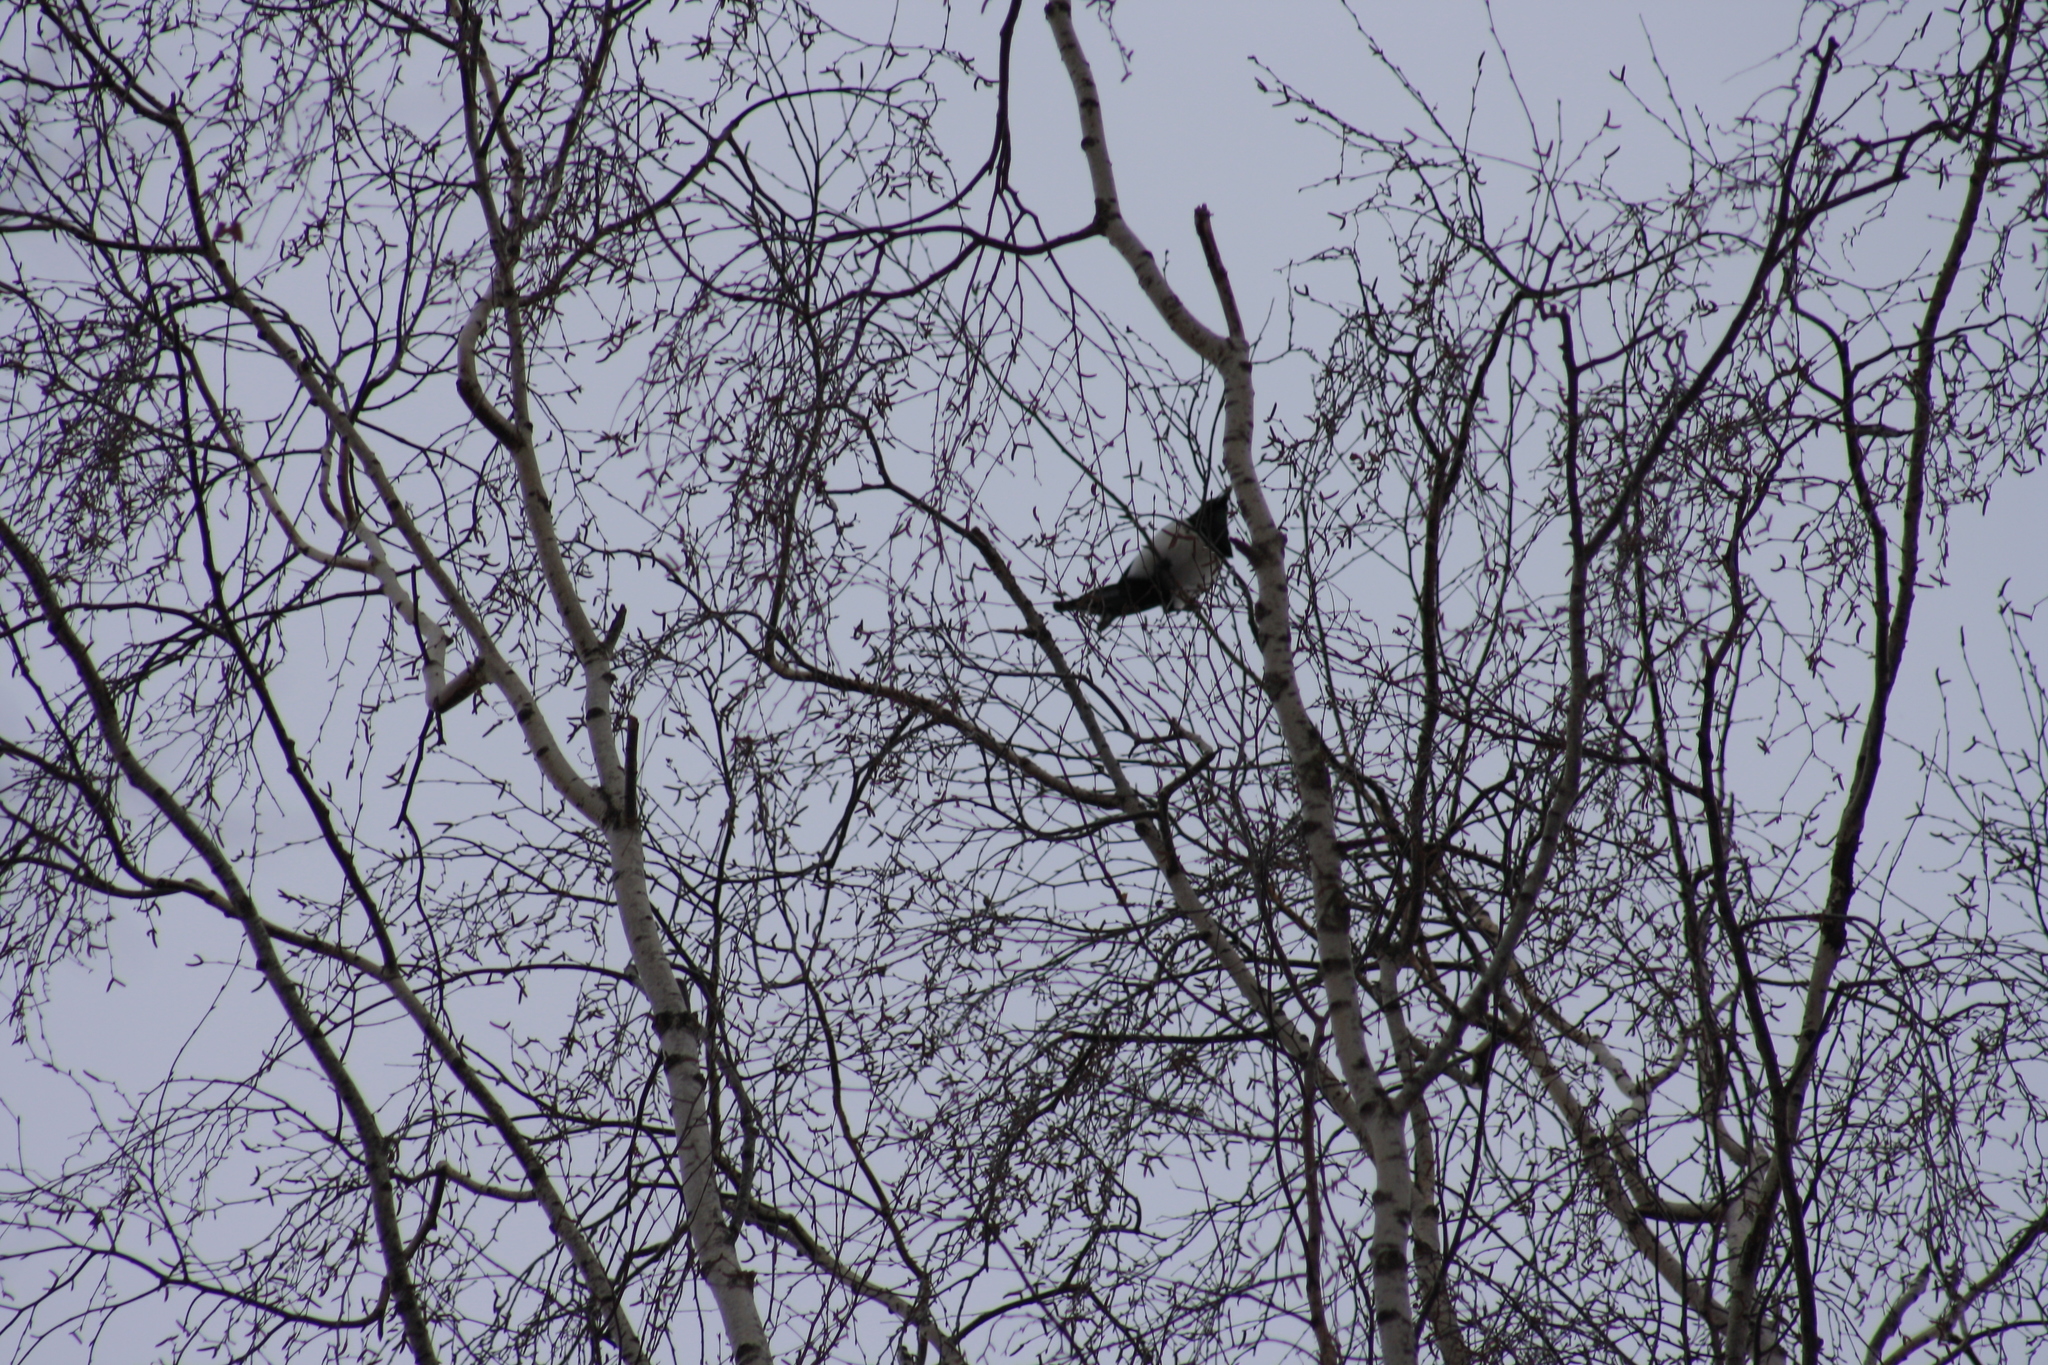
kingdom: Animalia
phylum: Chordata
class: Aves
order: Passeriformes
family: Corvidae
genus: Pica
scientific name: Pica pica
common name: Eurasian magpie
